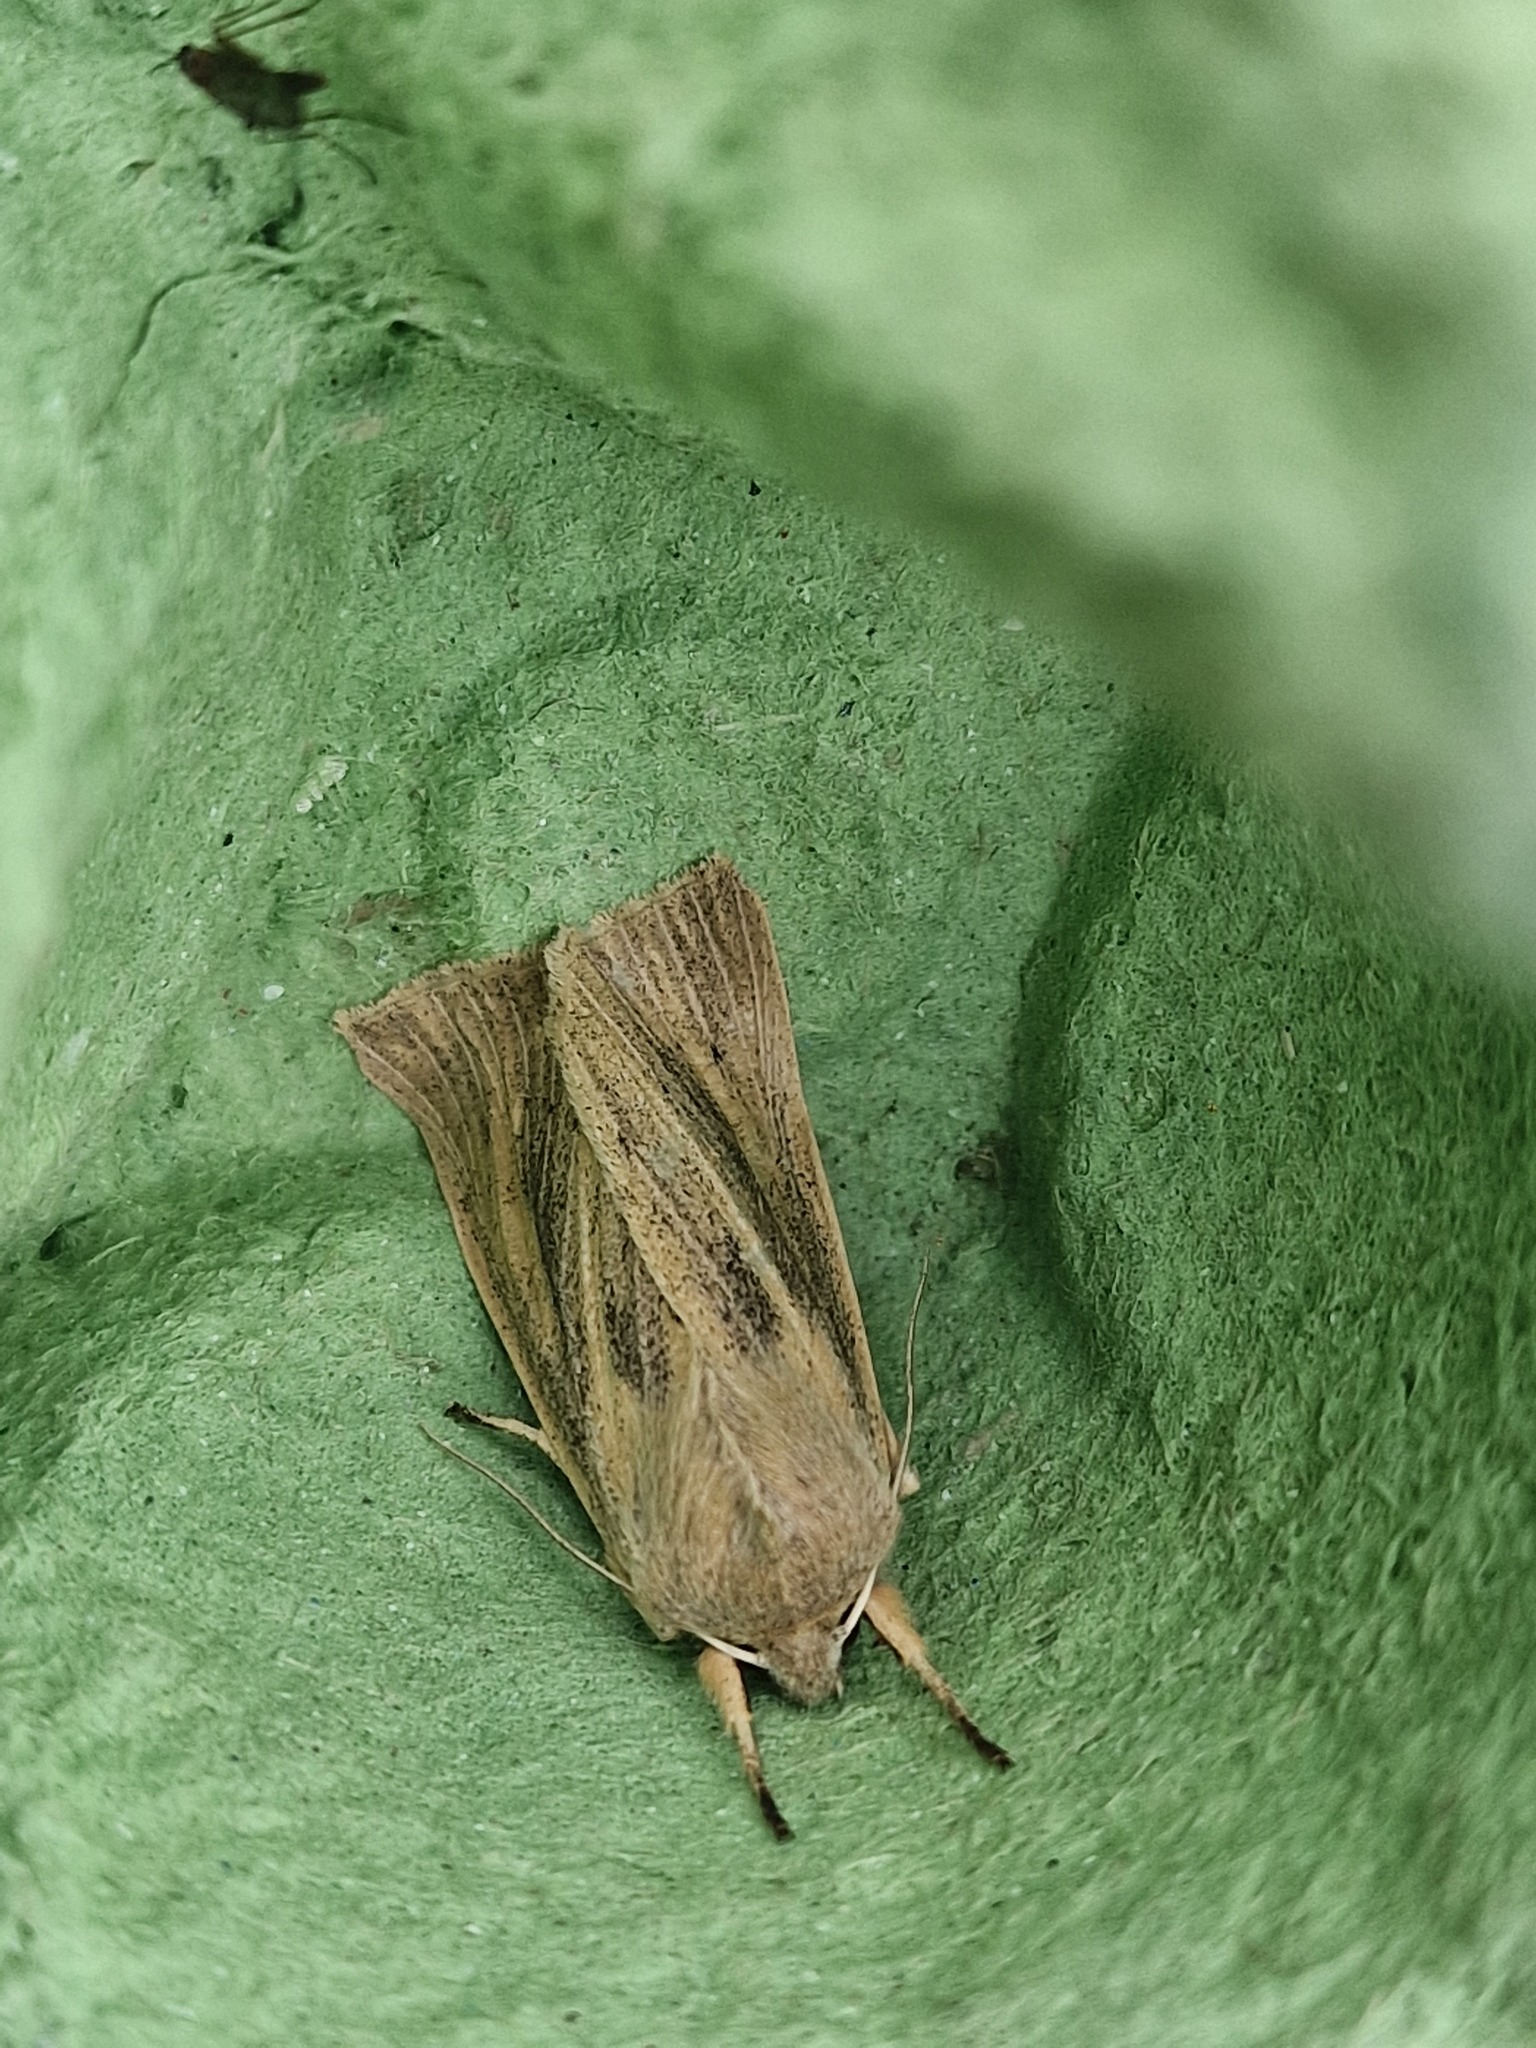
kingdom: Animalia
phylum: Arthropoda
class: Insecta
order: Lepidoptera
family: Noctuidae
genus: Rhizedra
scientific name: Rhizedra lutosa
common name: Large wainscot
